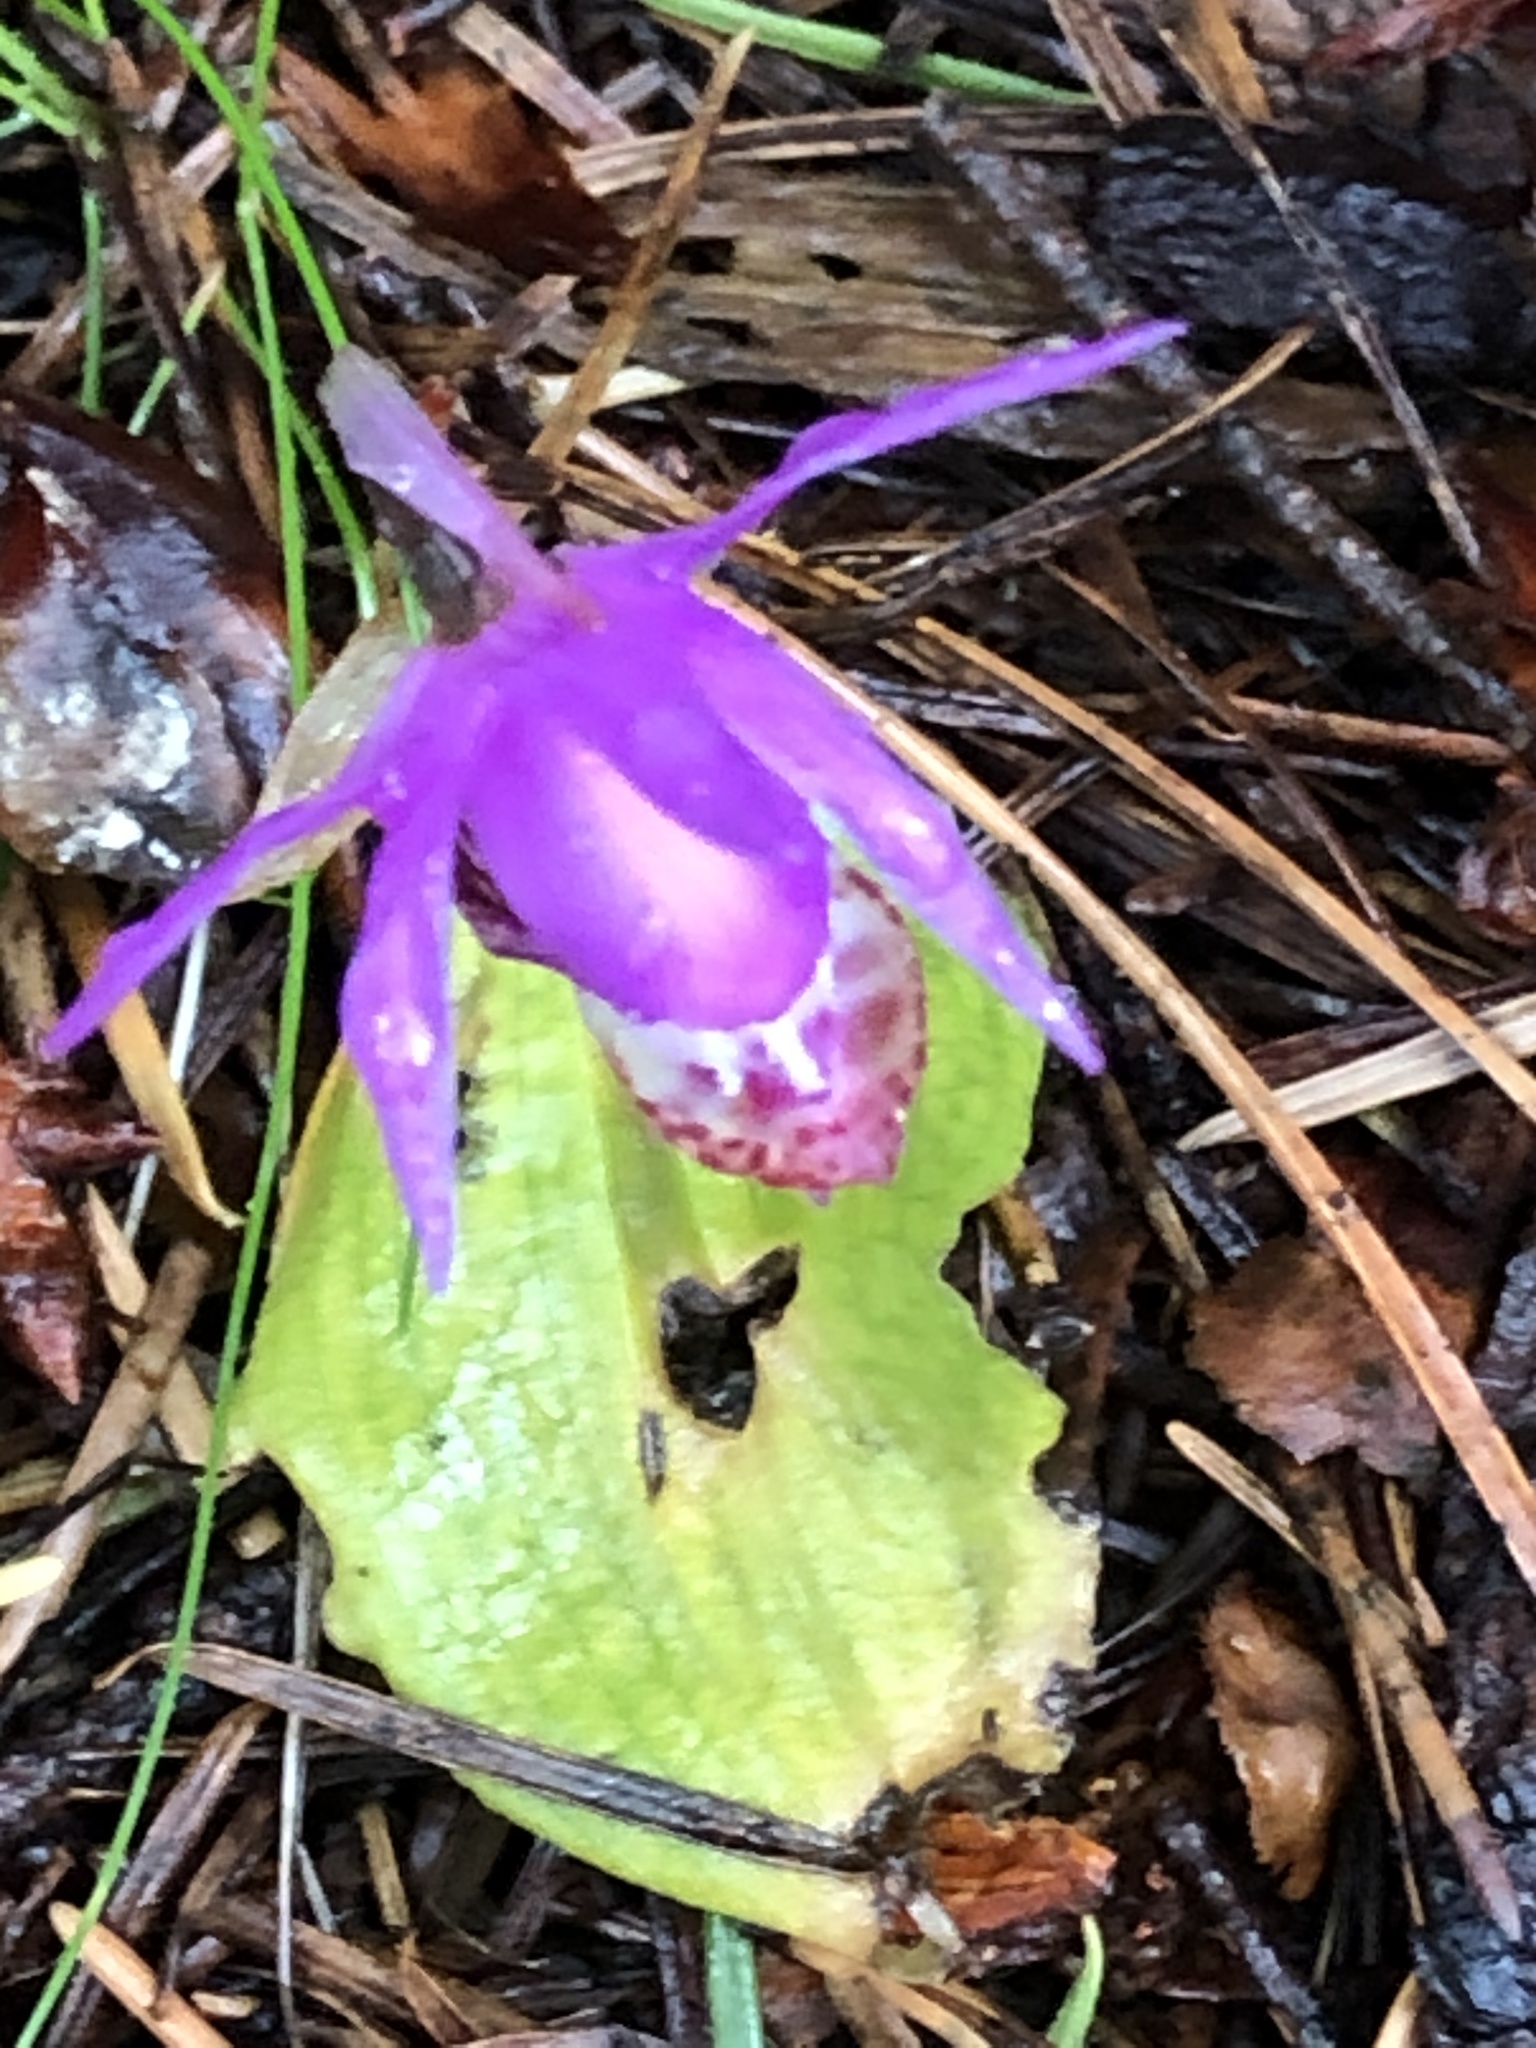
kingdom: Plantae
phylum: Tracheophyta
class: Liliopsida
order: Asparagales
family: Orchidaceae
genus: Calypso
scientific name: Calypso bulbosa
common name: Calypso
